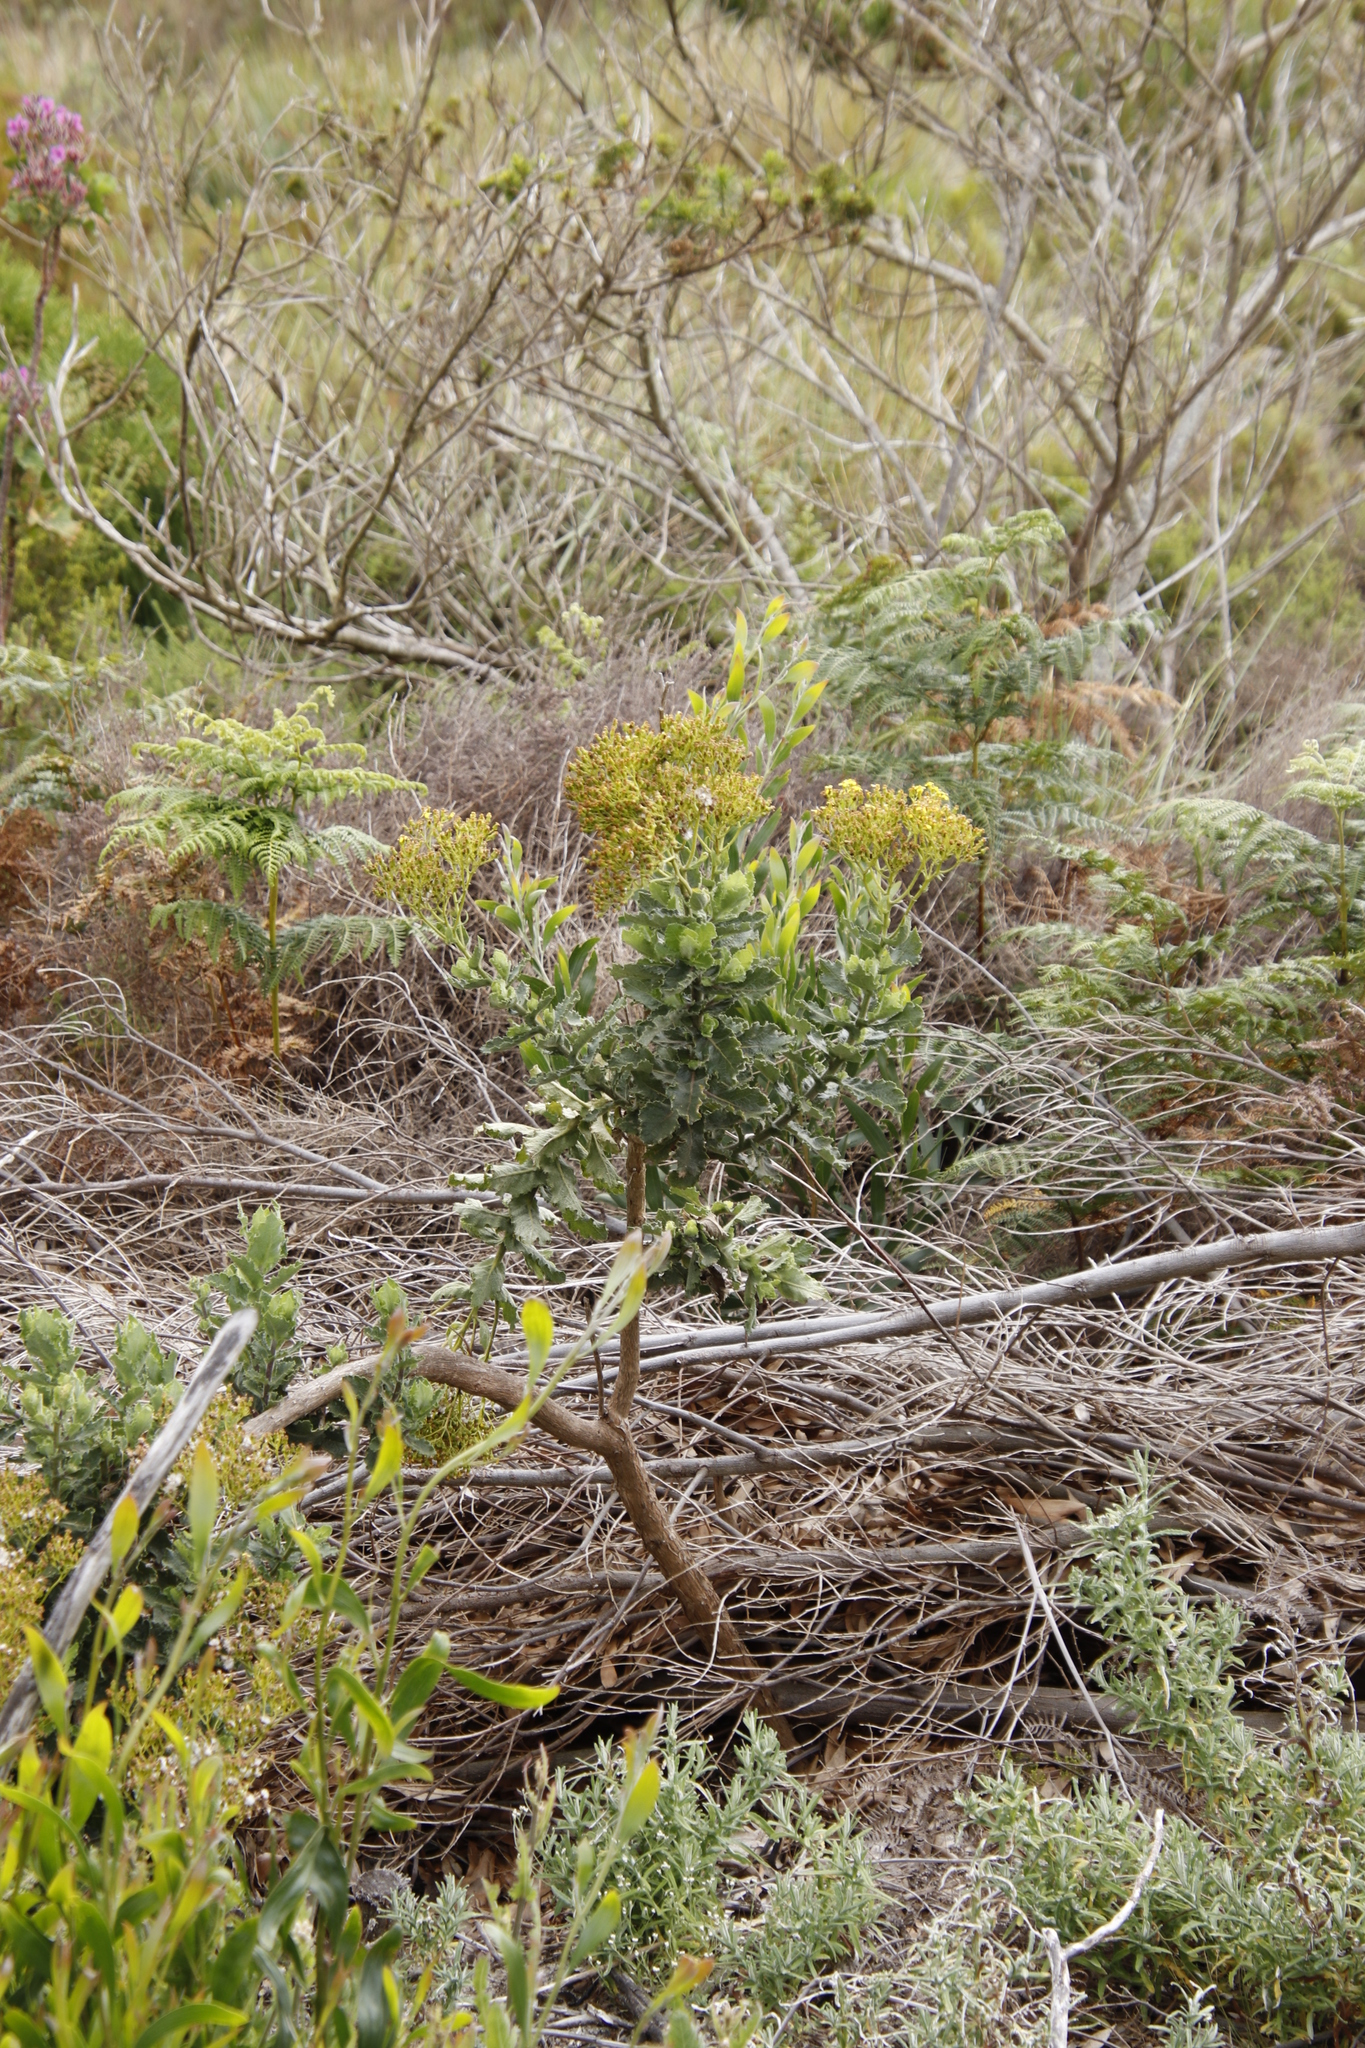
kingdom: Plantae
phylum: Tracheophyta
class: Magnoliopsida
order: Asterales
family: Asteraceae
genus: Senecio
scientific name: Senecio rigidus
